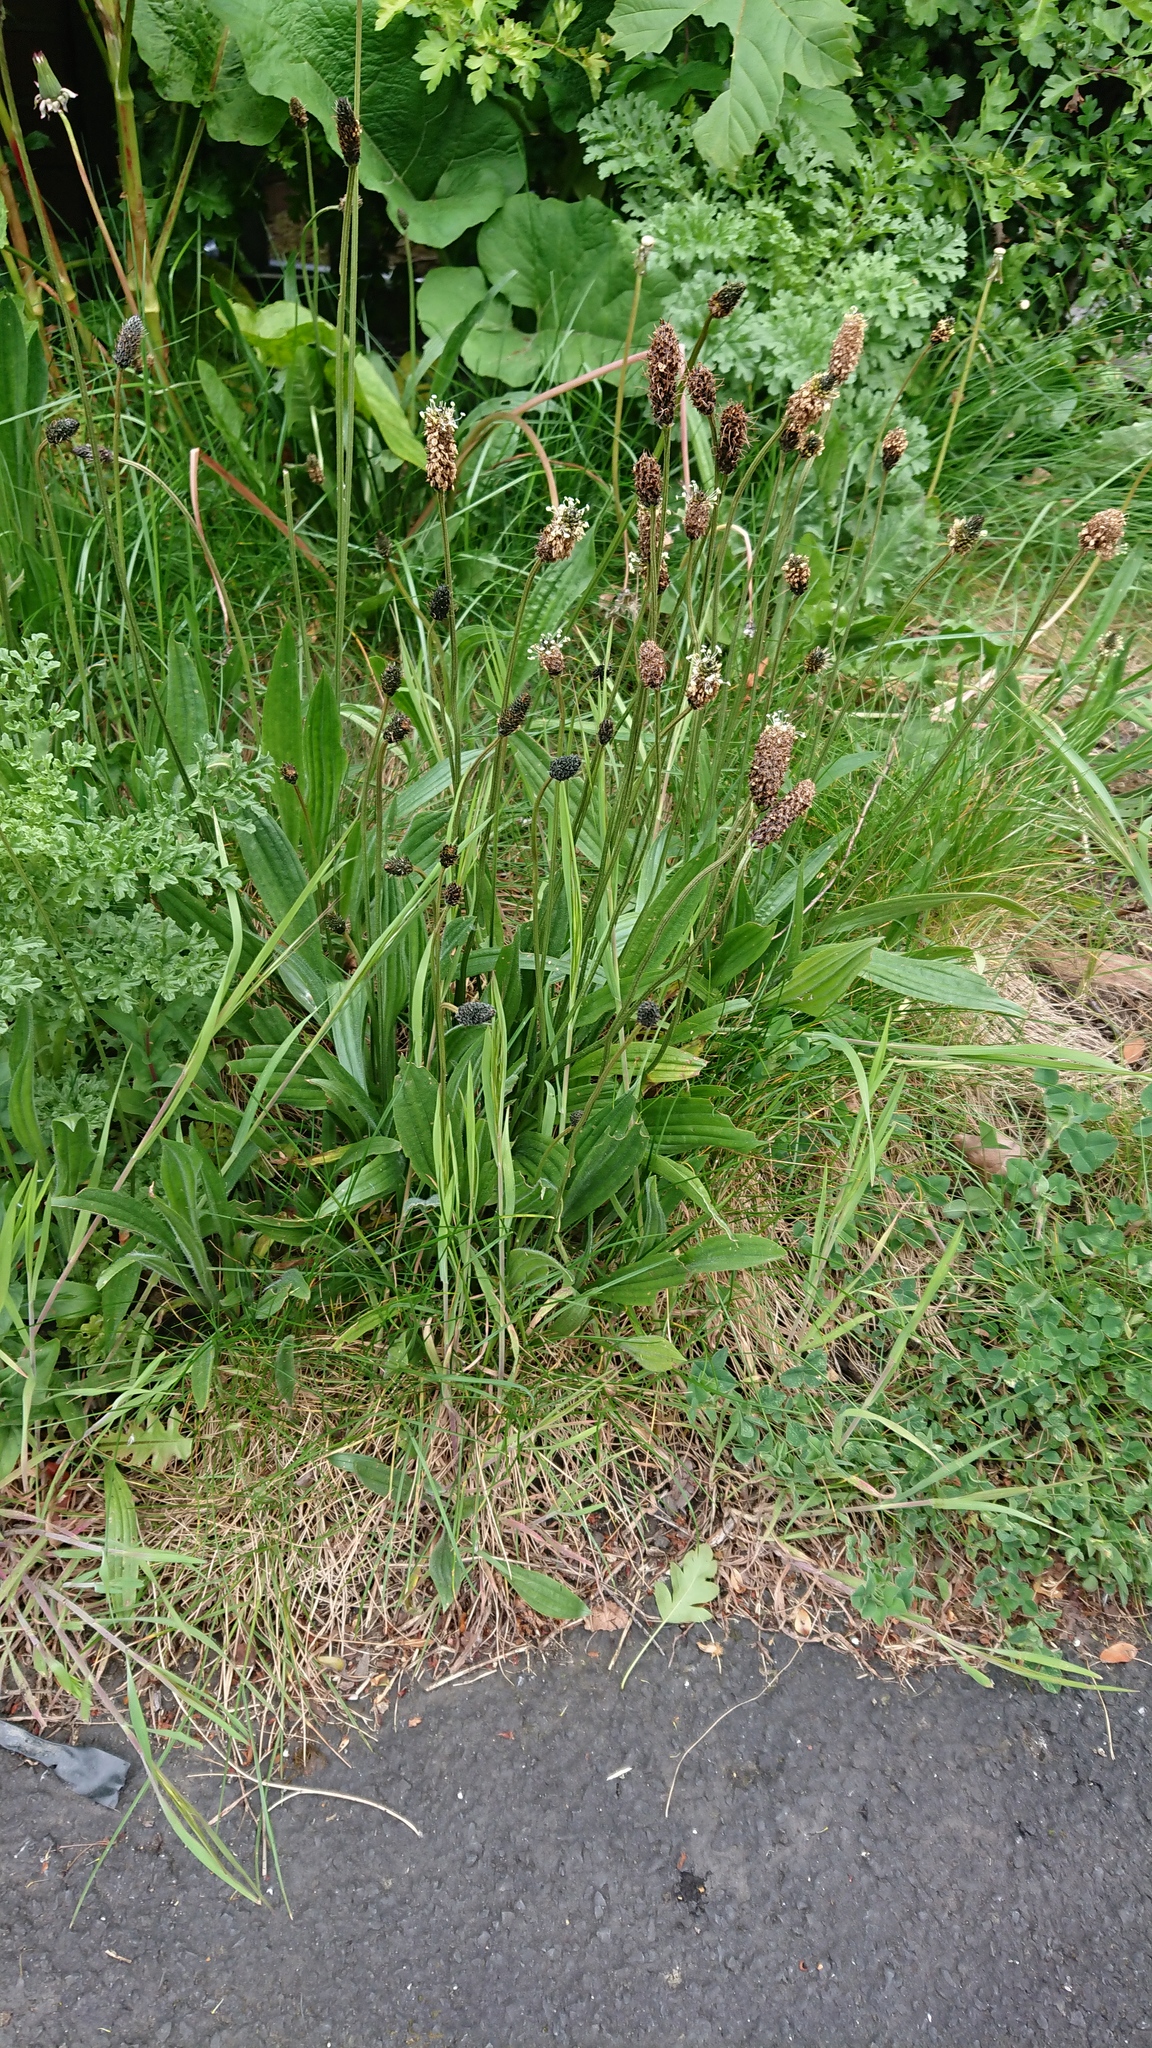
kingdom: Plantae
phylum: Tracheophyta
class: Magnoliopsida
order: Lamiales
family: Plantaginaceae
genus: Plantago
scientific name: Plantago lanceolata
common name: Ribwort plantain
